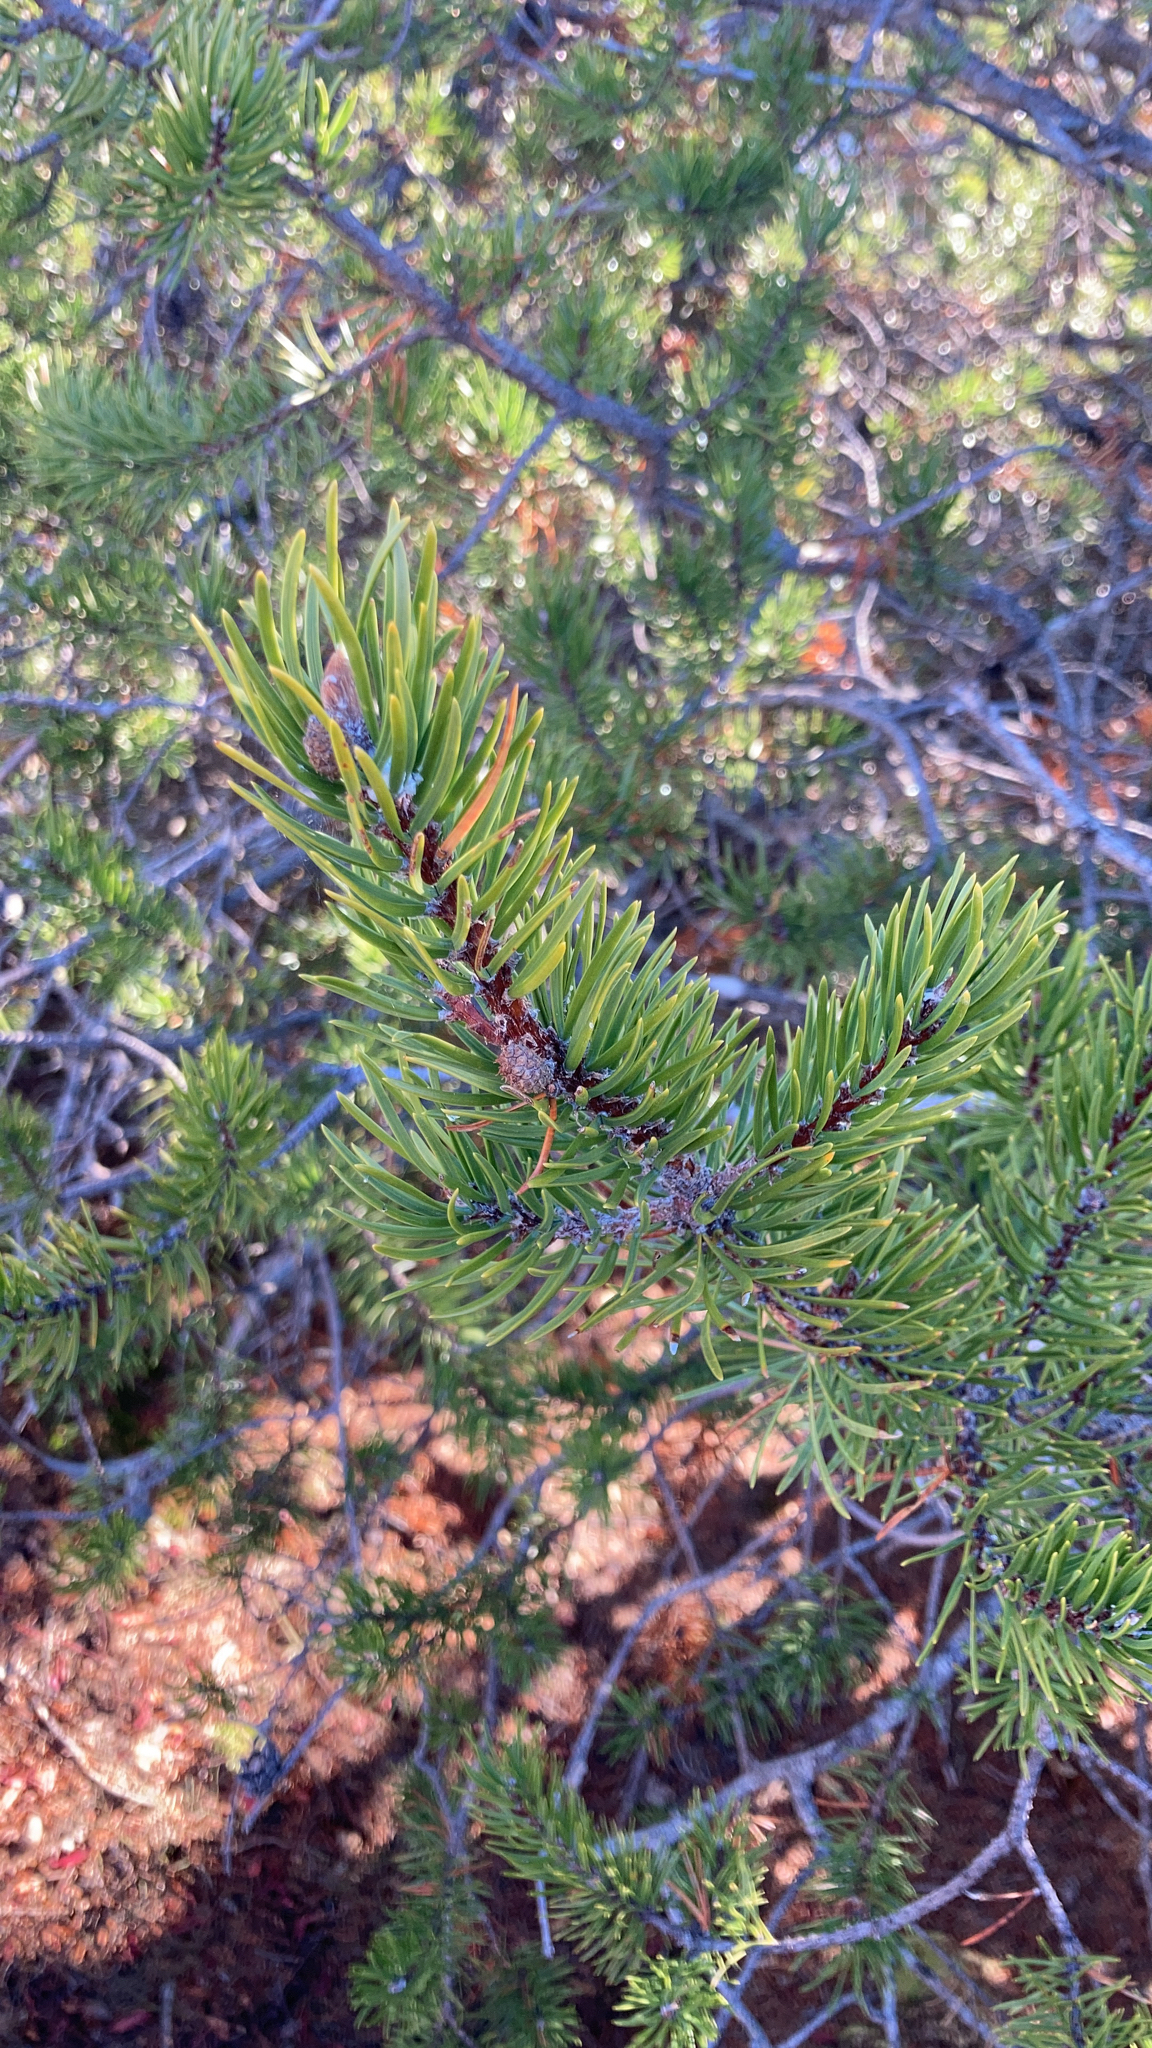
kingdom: Plantae
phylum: Tracheophyta
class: Pinopsida
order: Pinales
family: Pinaceae
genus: Pinus
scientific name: Pinus banksiana
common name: Jack pine
